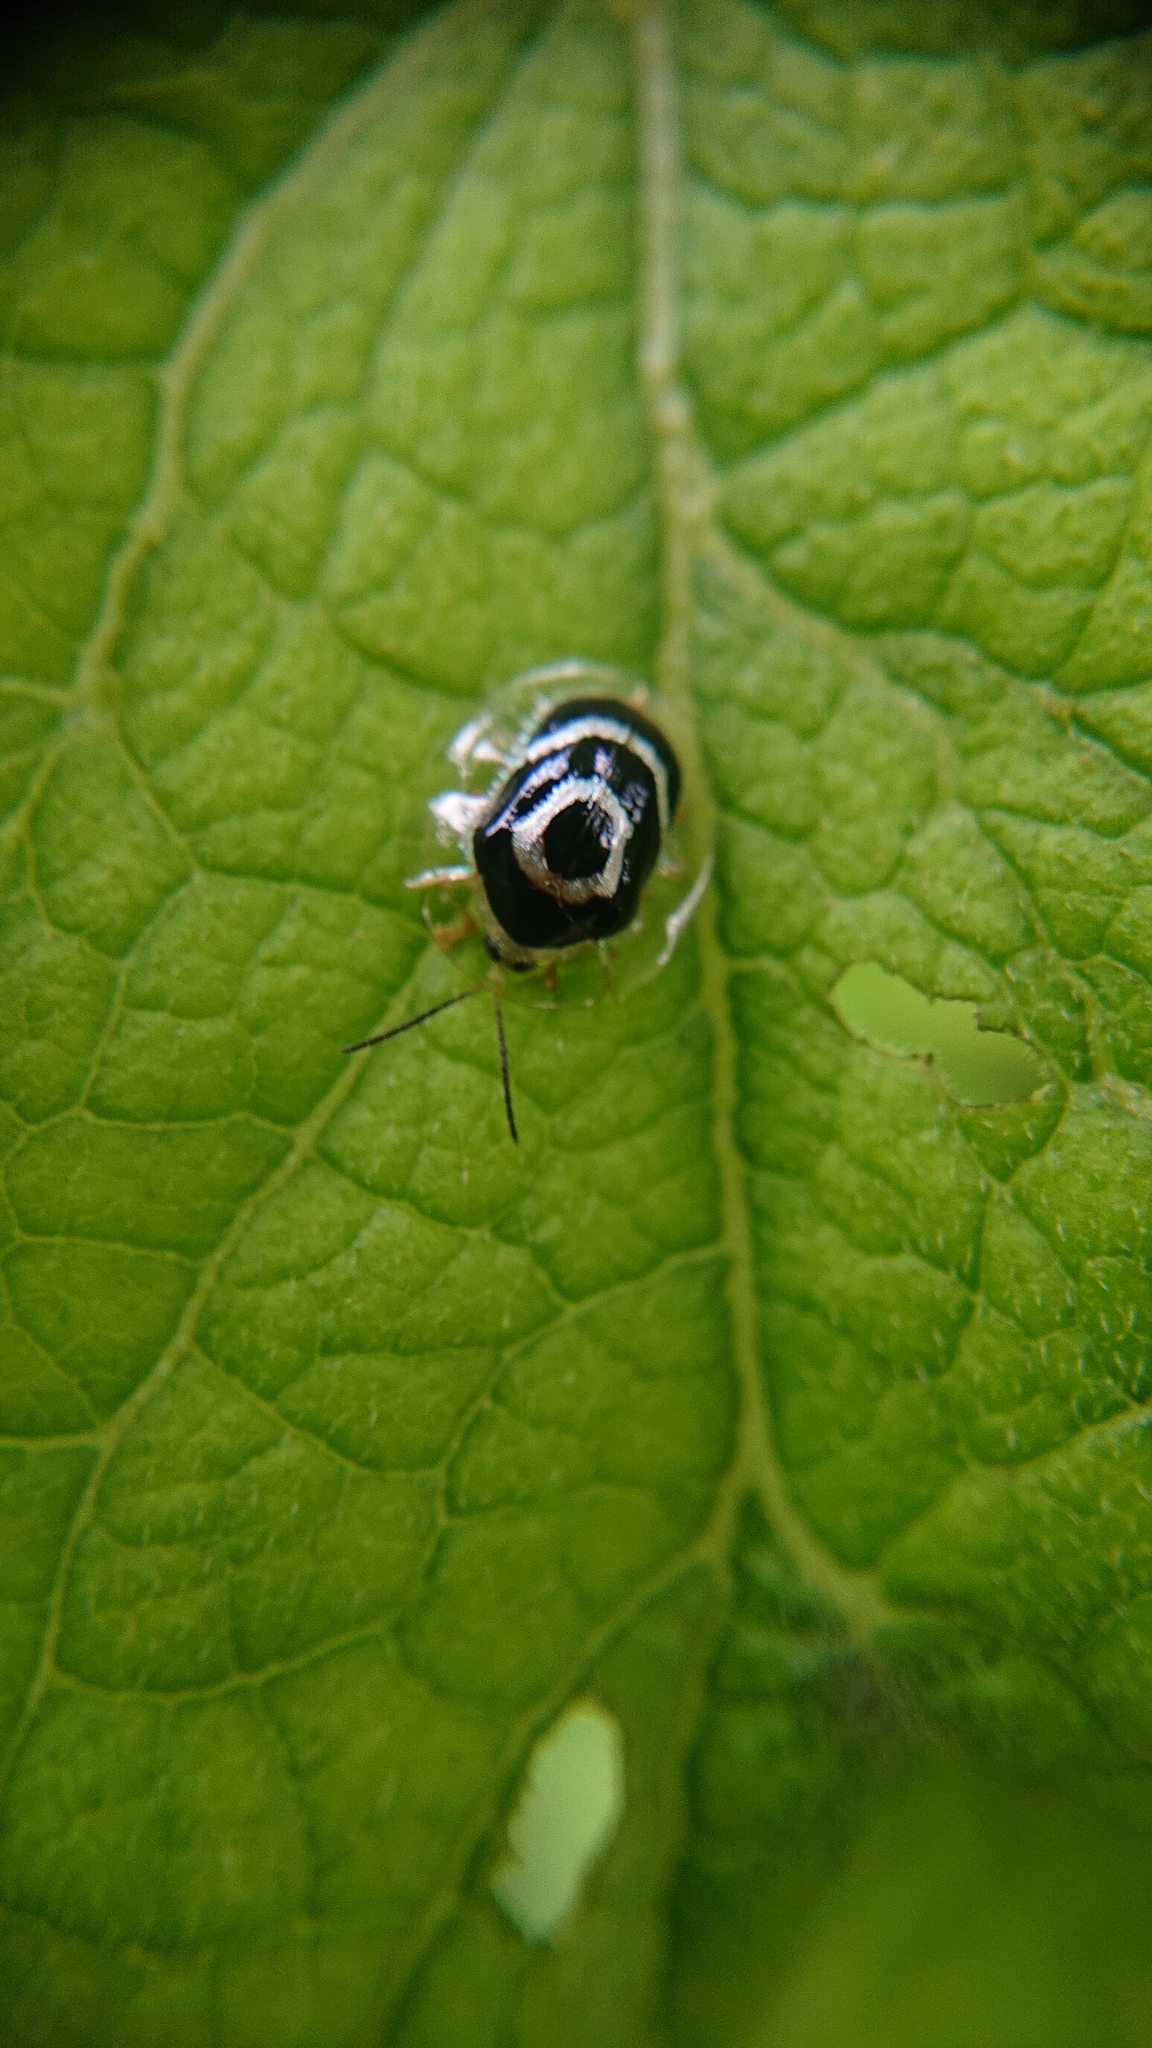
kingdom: Animalia
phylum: Arthropoda
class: Insecta
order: Coleoptera
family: Chrysomelidae
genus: Ischnocodia
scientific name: Ischnocodia annulus
